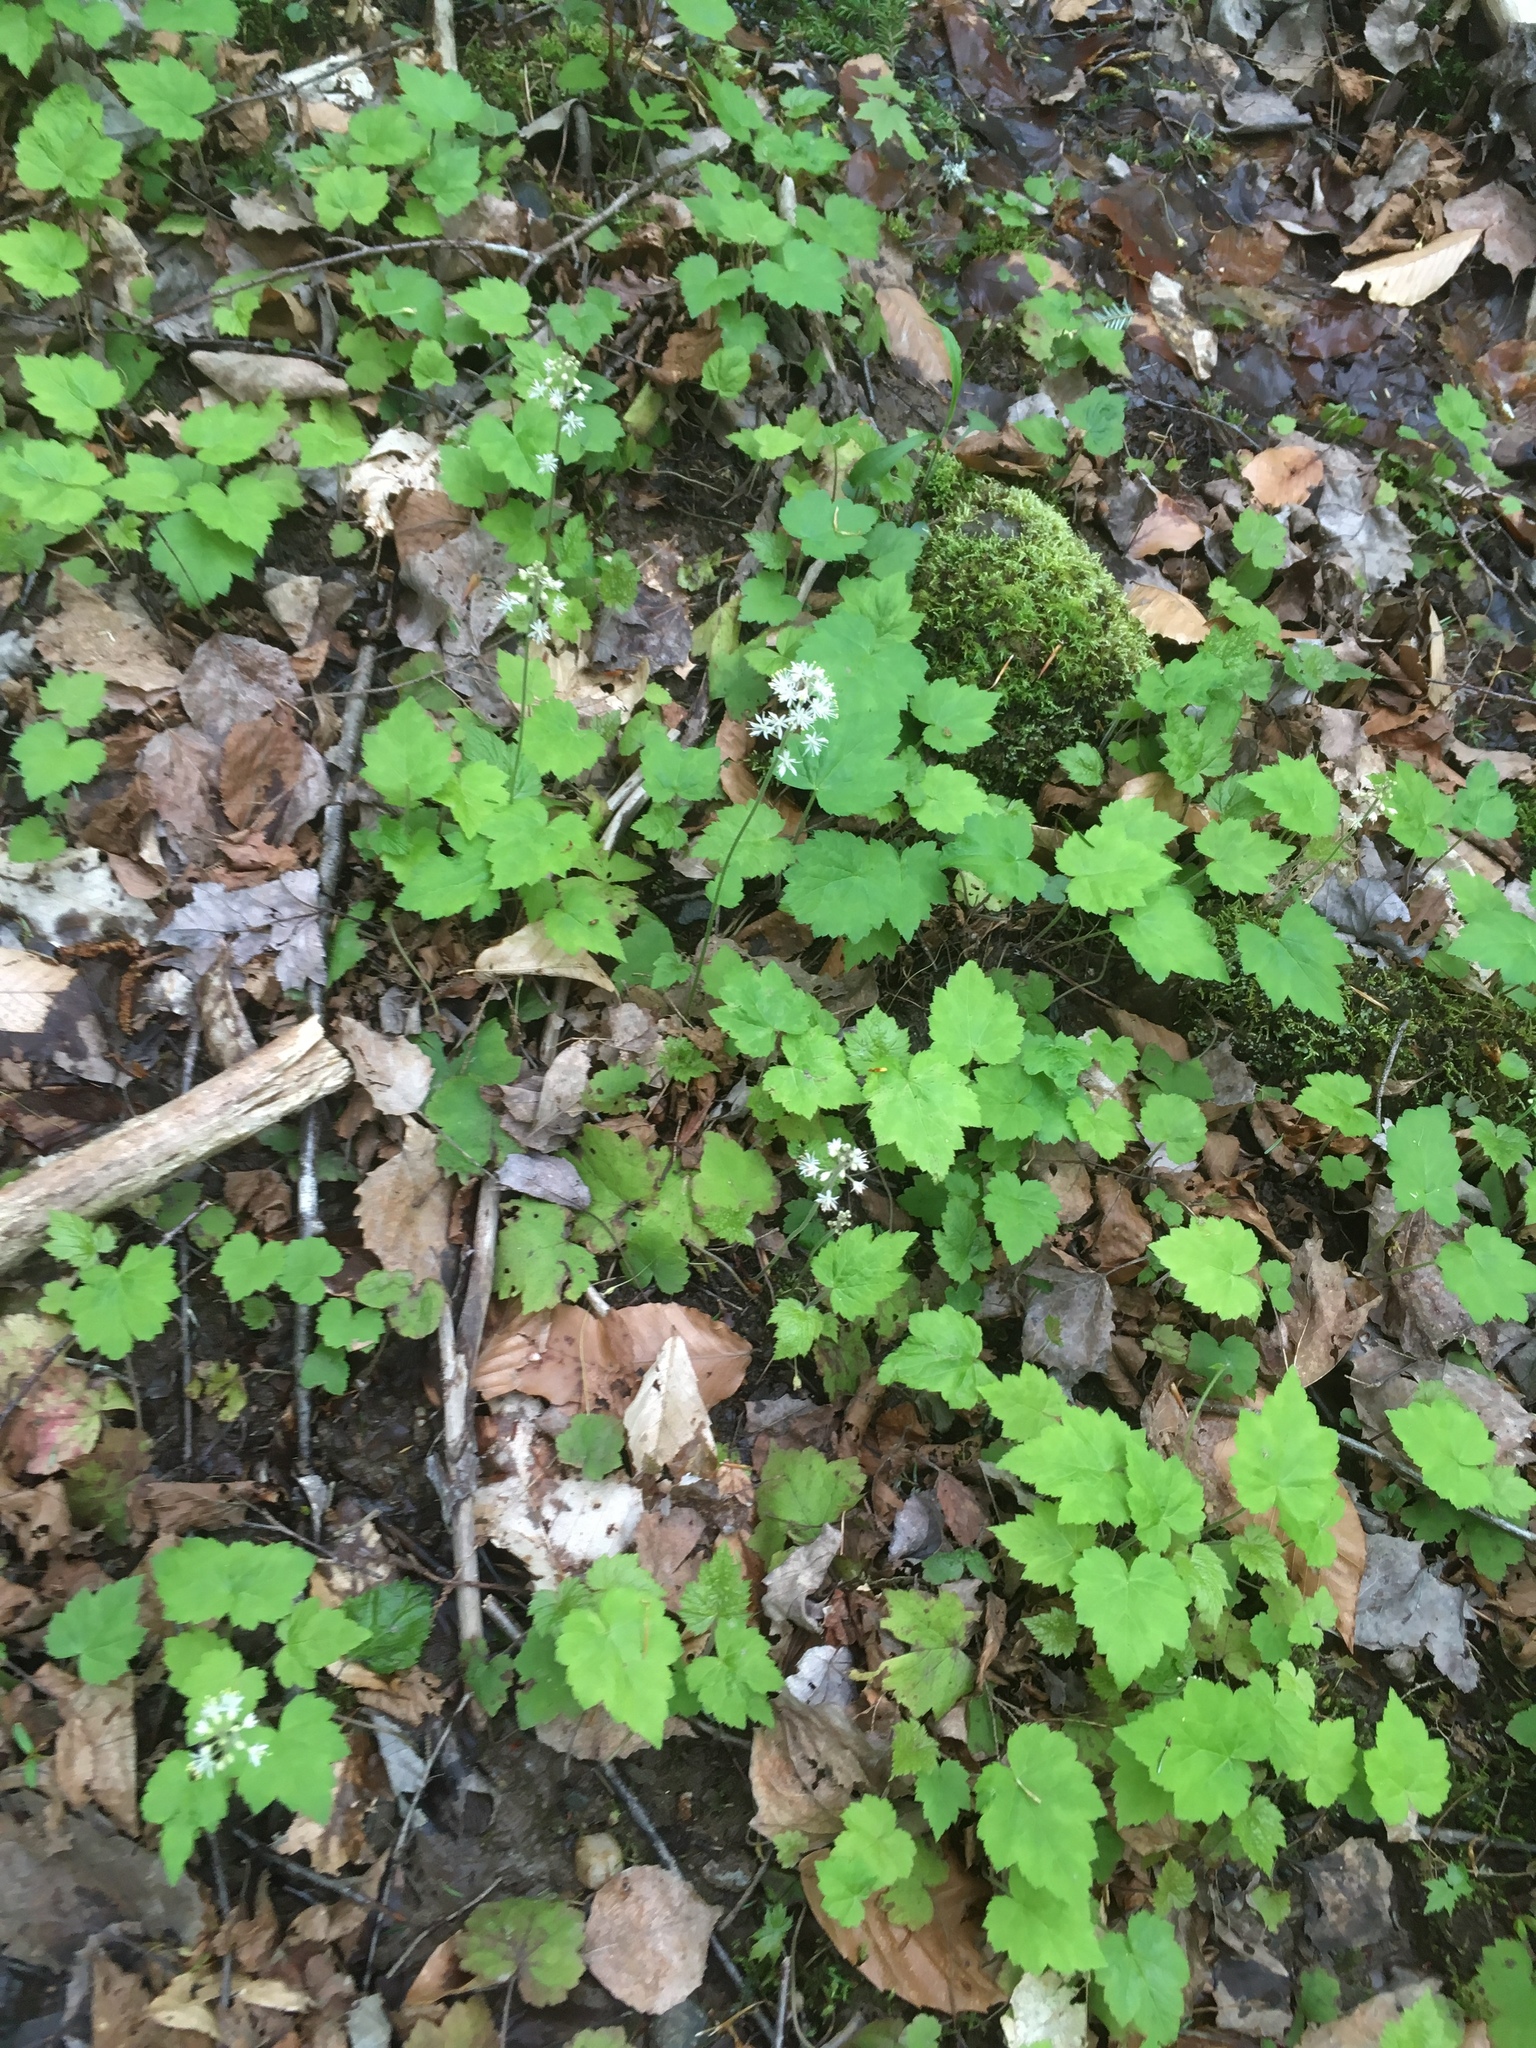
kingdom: Plantae
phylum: Tracheophyta
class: Magnoliopsida
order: Saxifragales
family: Saxifragaceae
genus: Tiarella
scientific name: Tiarella stolonifera
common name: Stoloniferous foamflower
